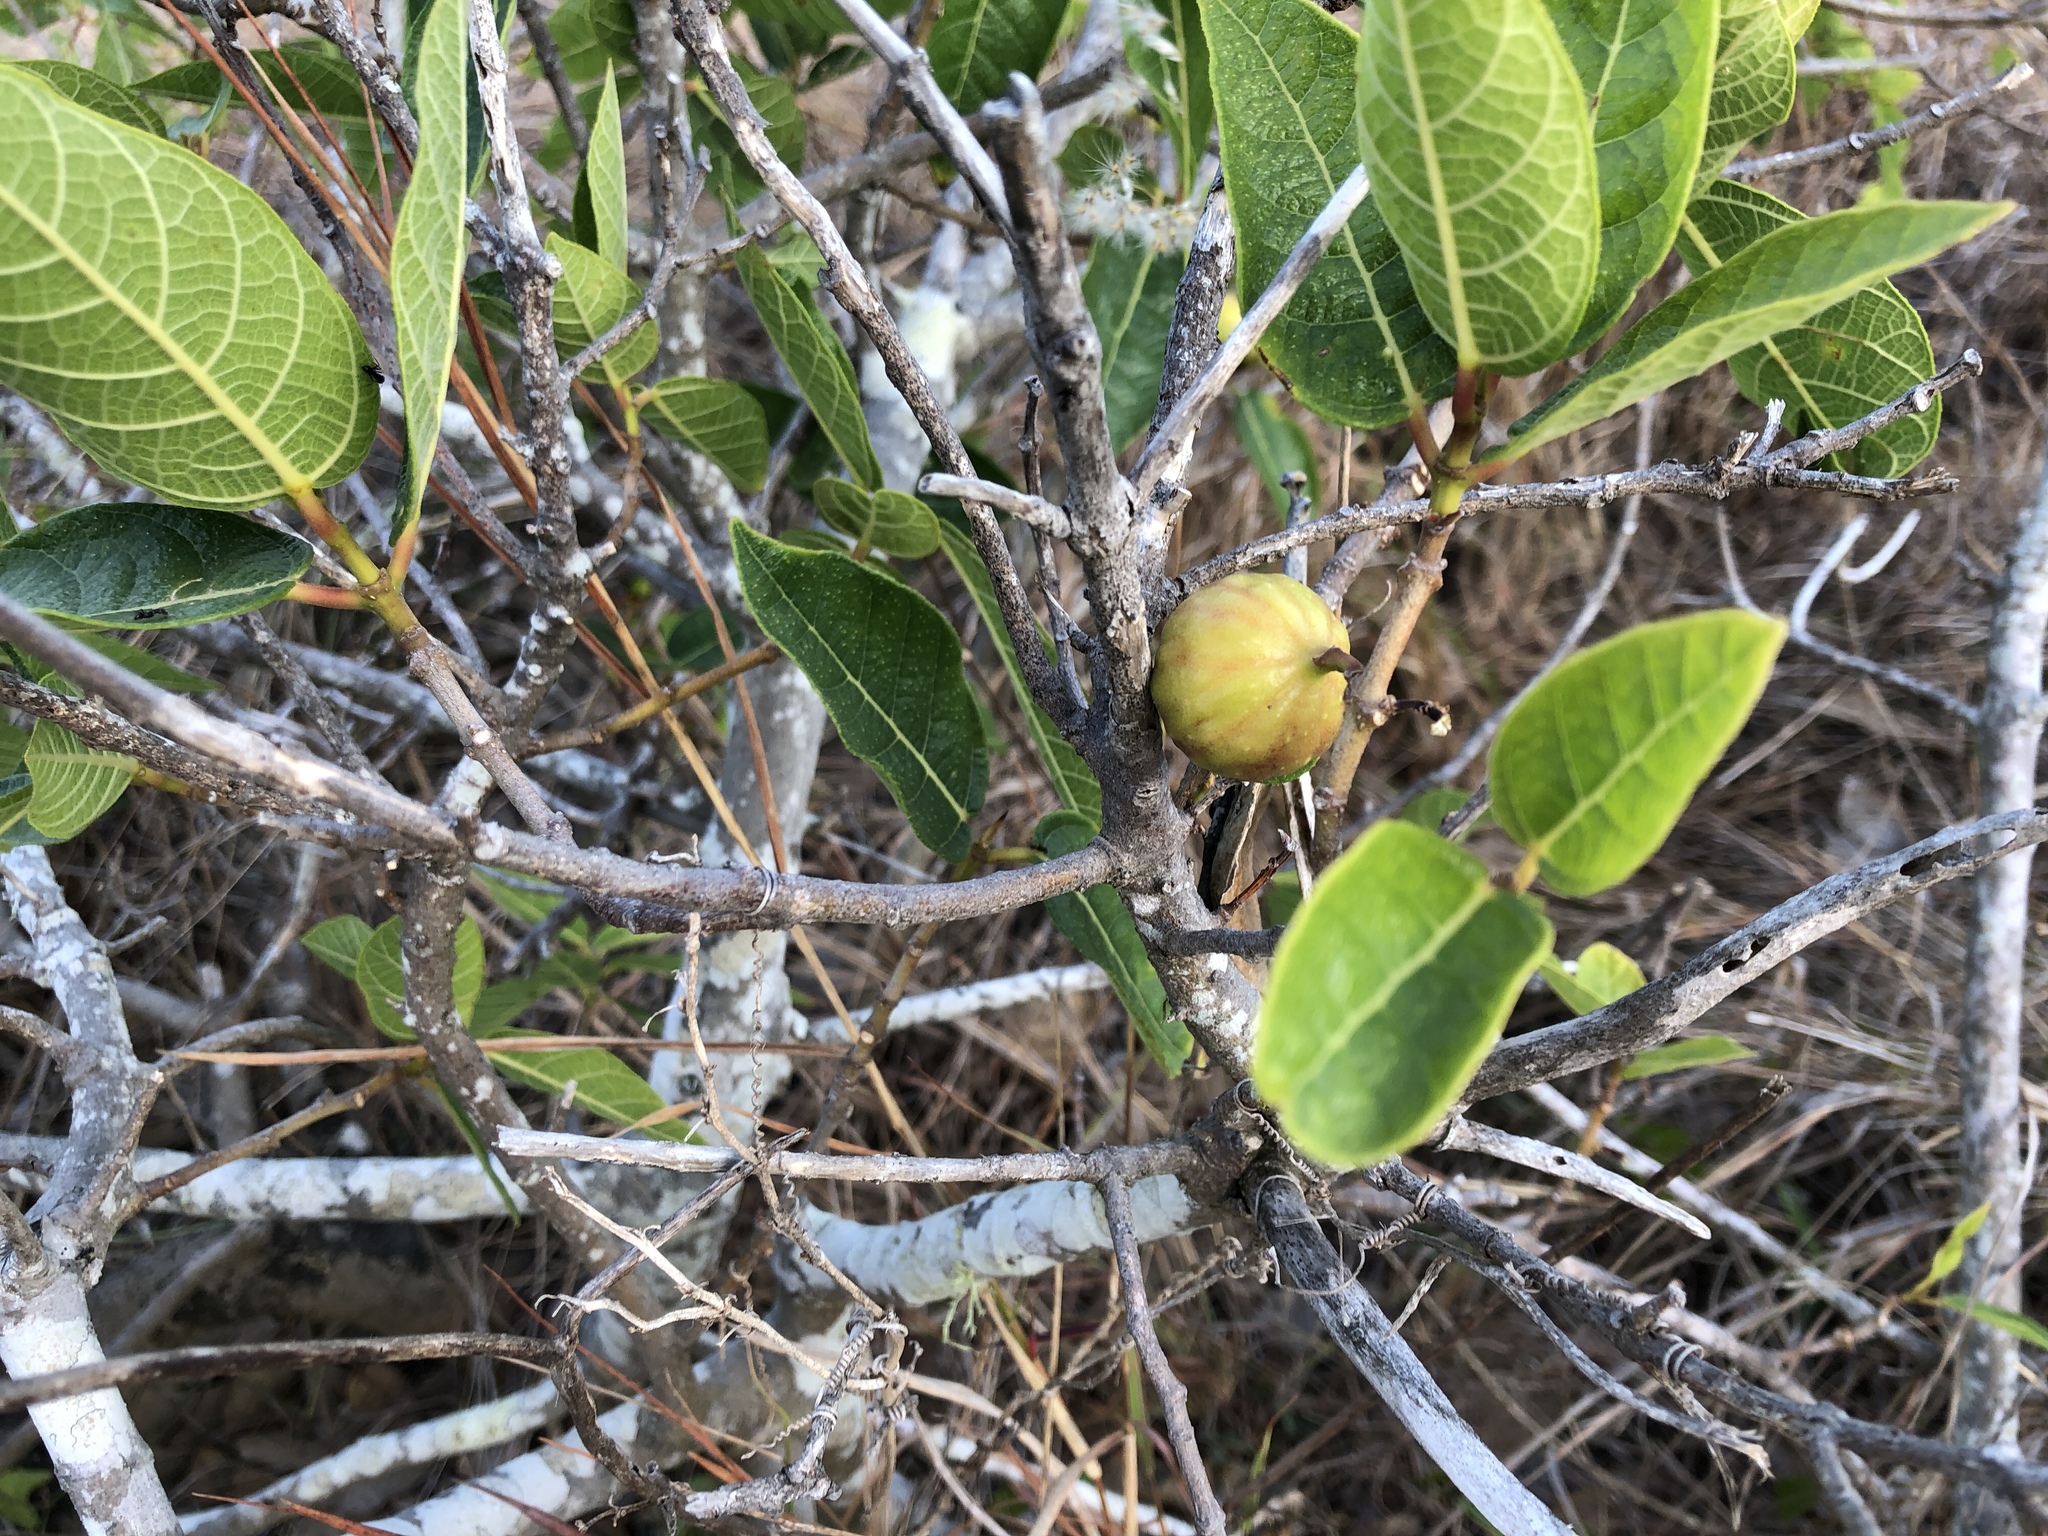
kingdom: Plantae
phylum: Tracheophyta
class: Magnoliopsida
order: Rosales
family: Moraceae
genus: Ficus
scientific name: Ficus opposita
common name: Figwood
